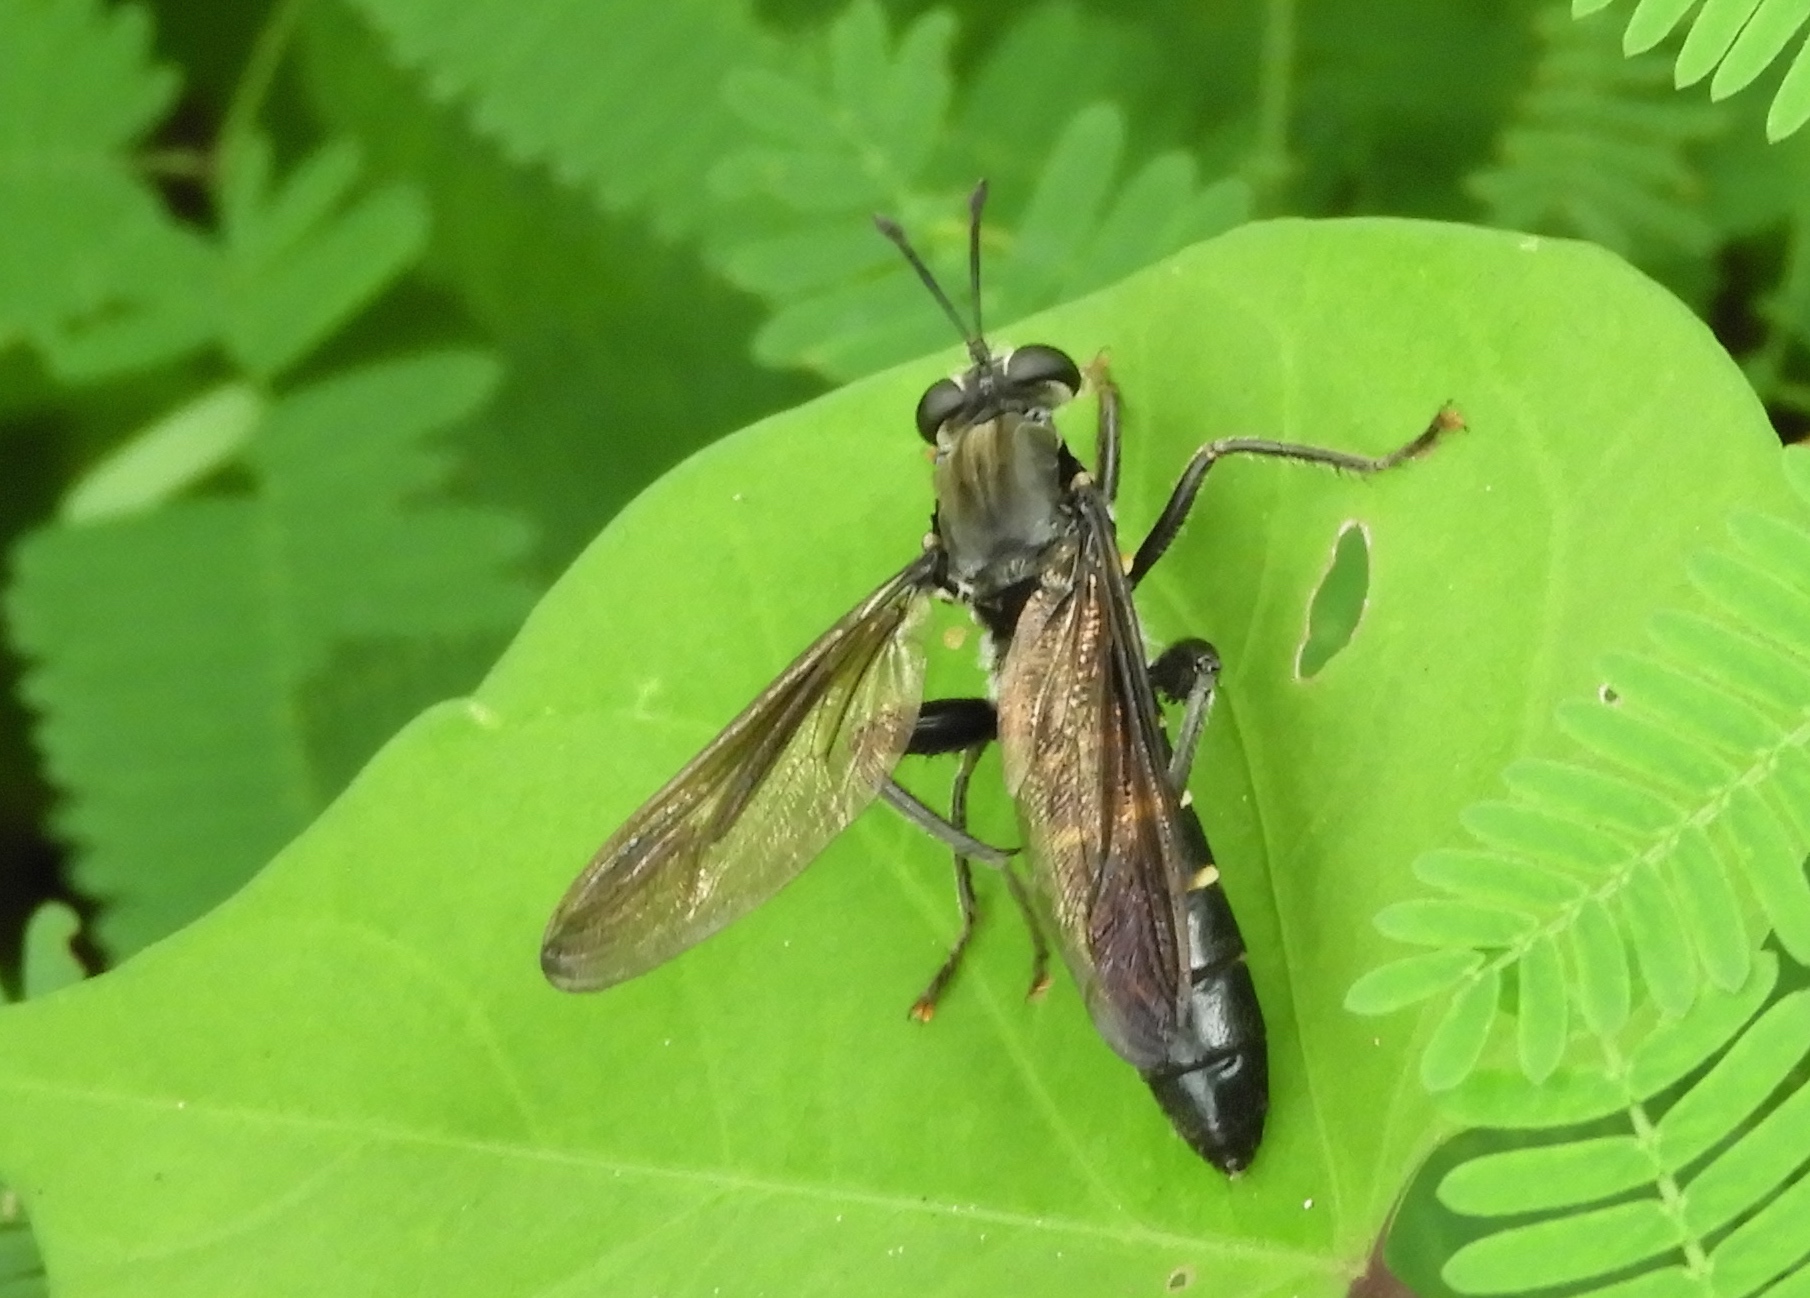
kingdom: Animalia
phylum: Arthropoda
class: Insecta
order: Diptera
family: Mydidae
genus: Mydas
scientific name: Mydas
